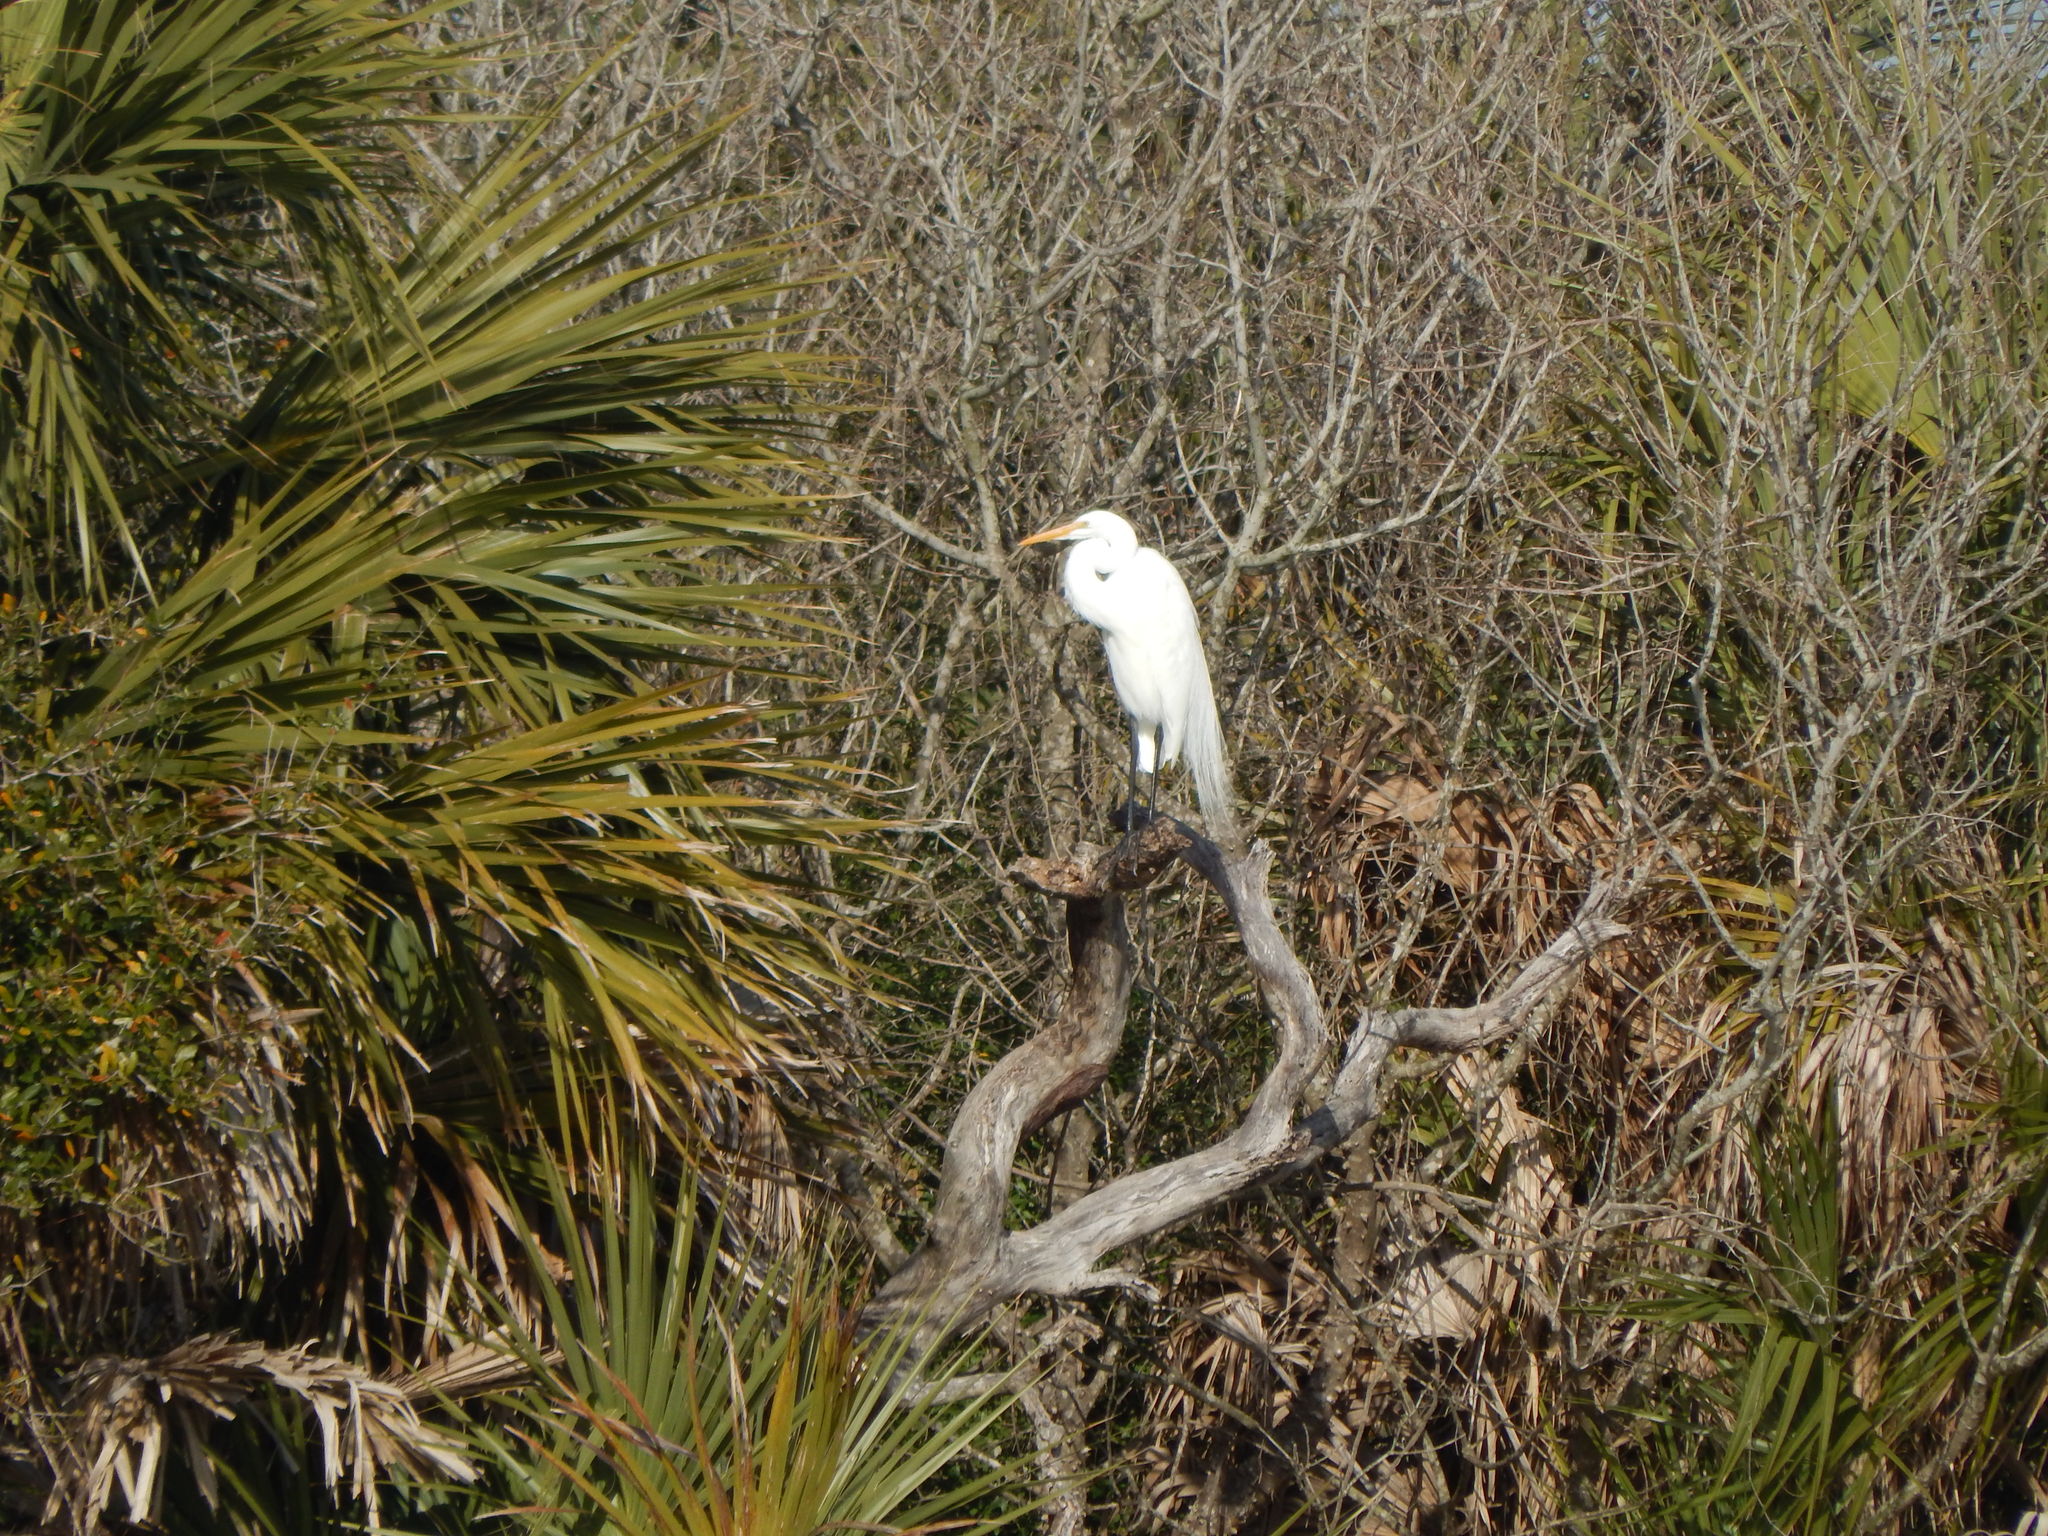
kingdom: Animalia
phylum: Chordata
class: Aves
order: Pelecaniformes
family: Ardeidae
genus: Ardea
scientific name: Ardea alba
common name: Great egret
